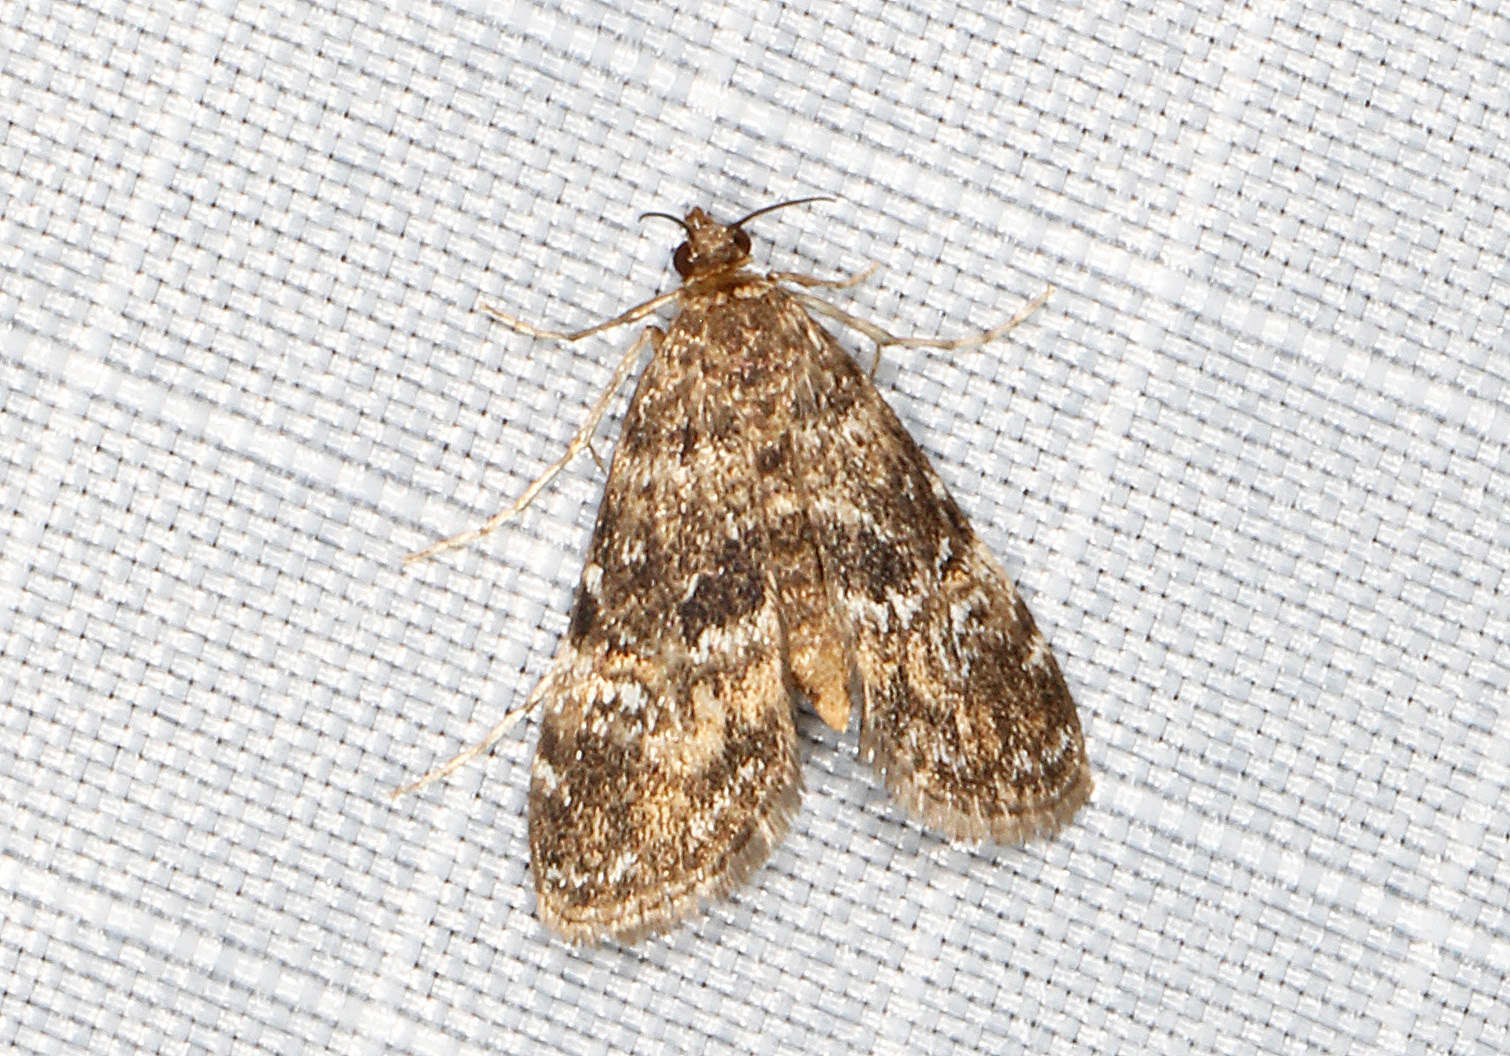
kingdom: Animalia
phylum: Arthropoda
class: Insecta
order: Lepidoptera
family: Crambidae
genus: Elophila
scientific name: Elophila obliteralis
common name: Waterlily leafcutter moth
